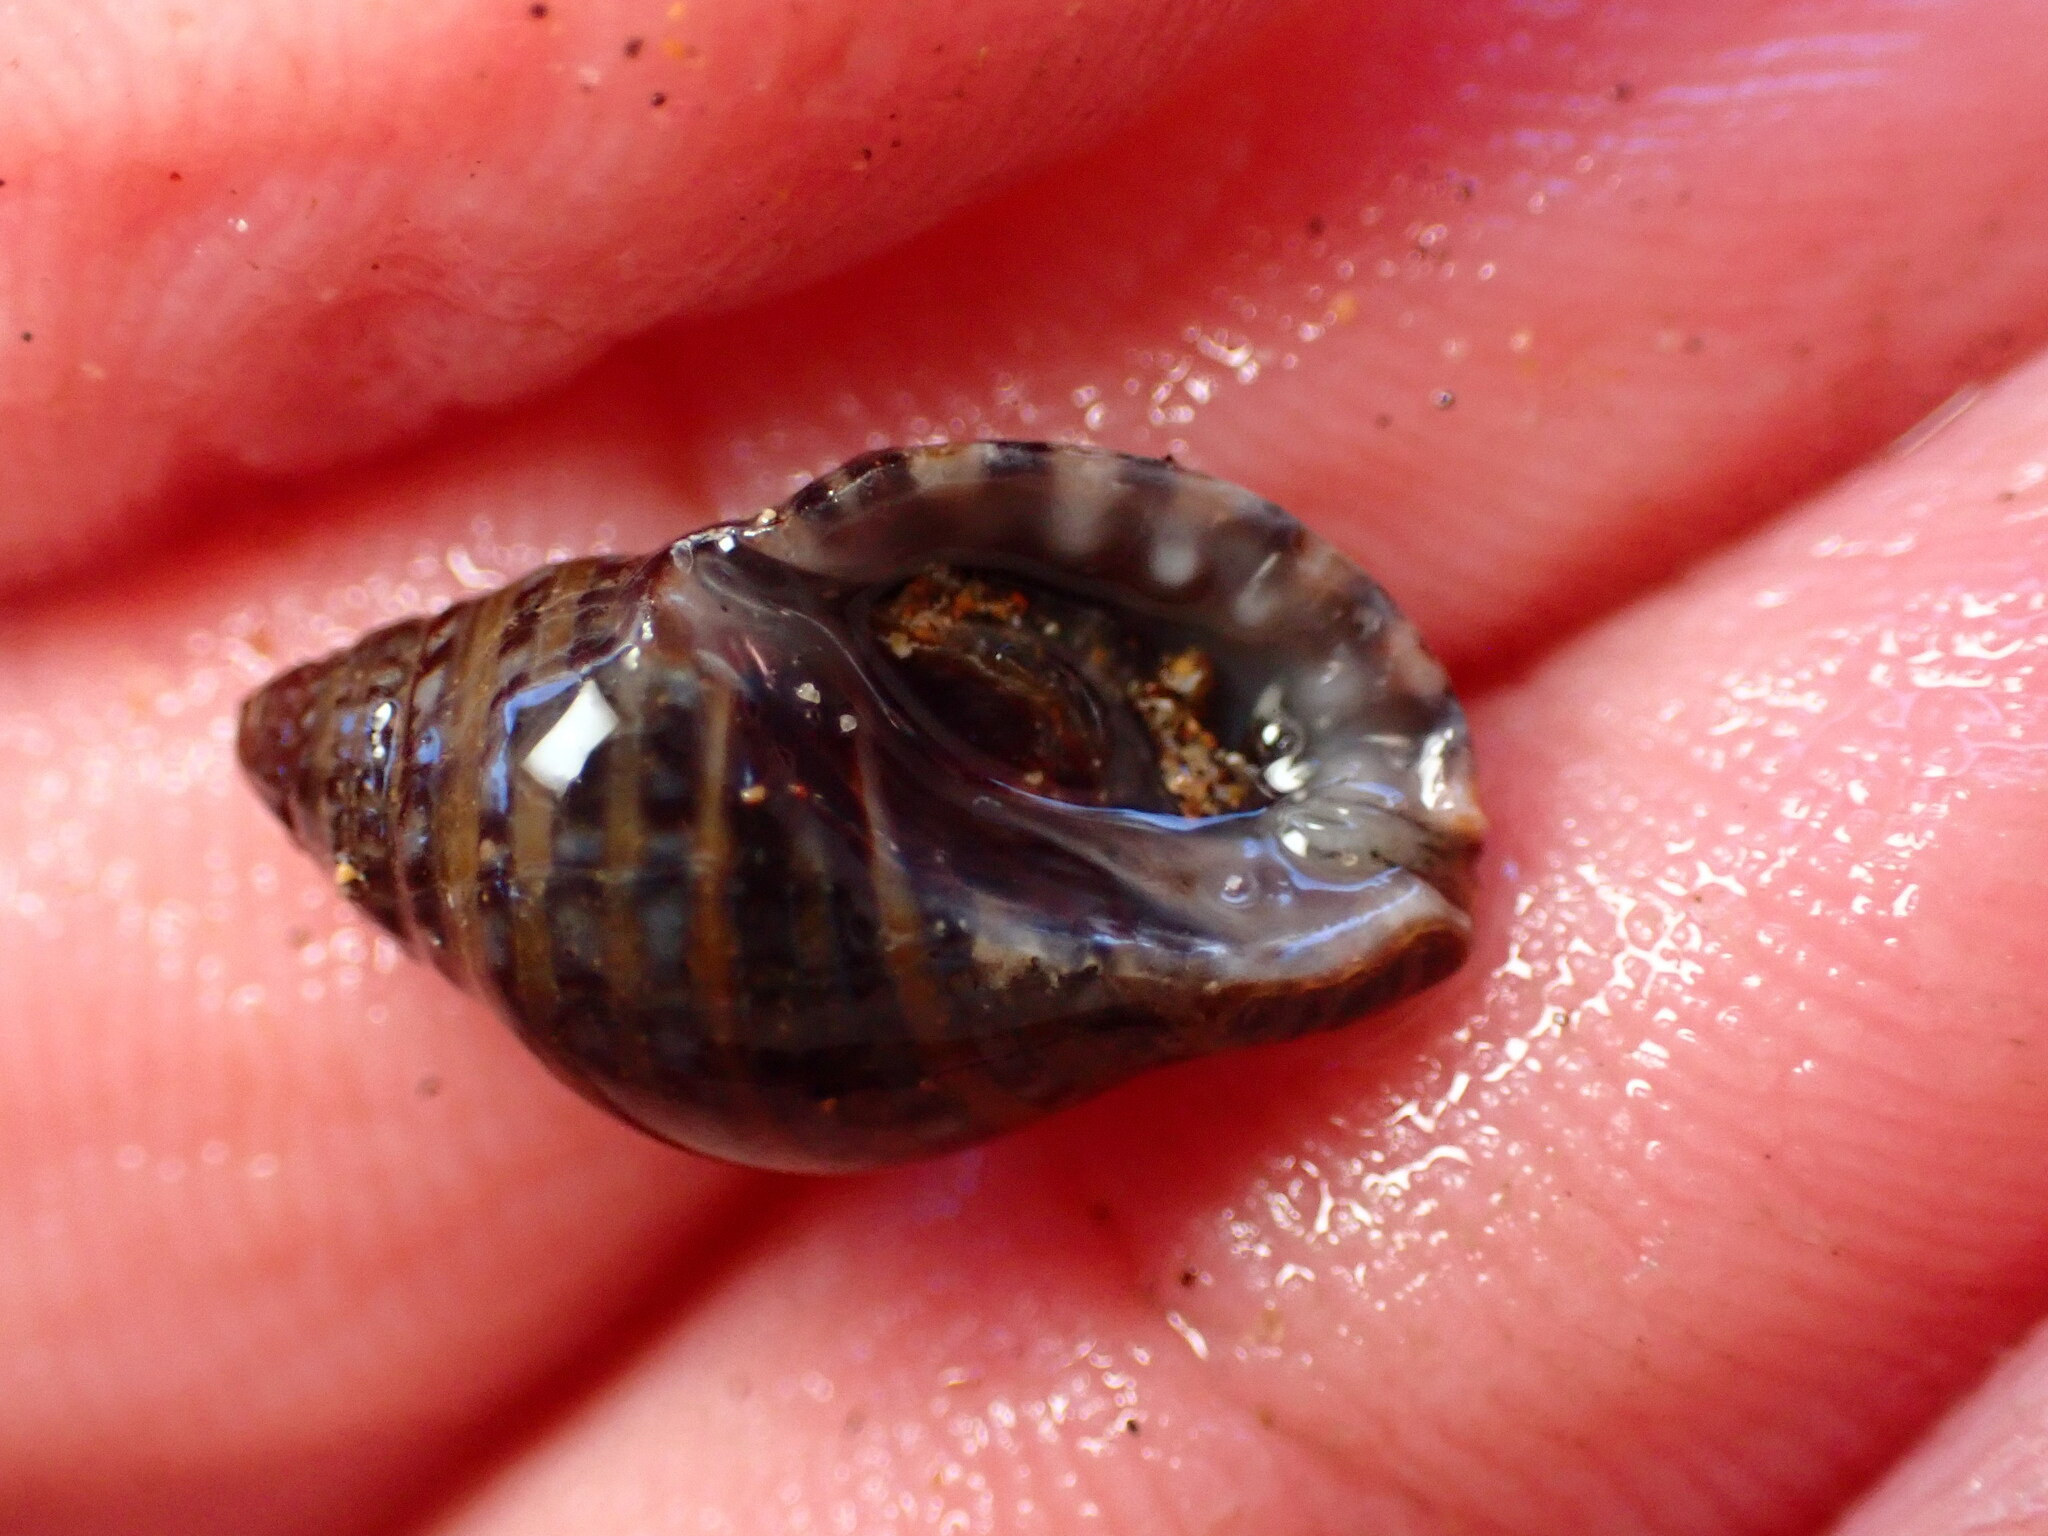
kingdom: Animalia
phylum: Mollusca
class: Gastropoda
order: Neogastropoda
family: Muricidae
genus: Usilla
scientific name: Usilla avenacea
